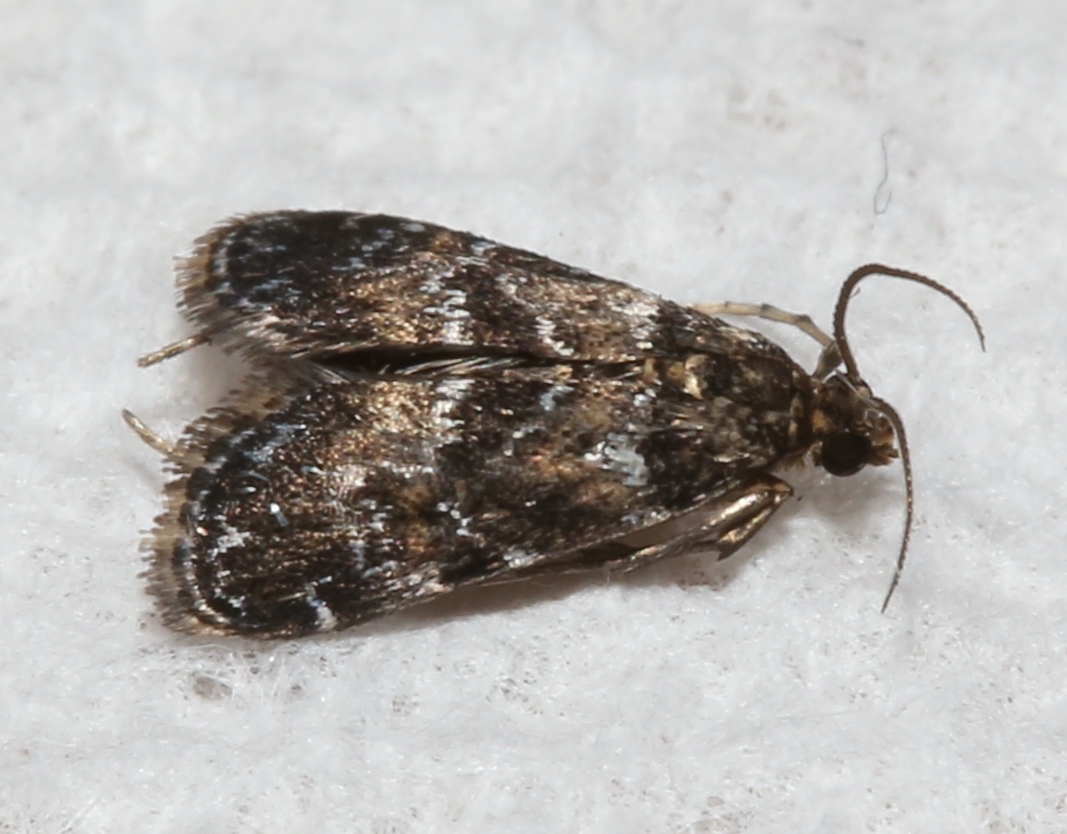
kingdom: Animalia
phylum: Arthropoda
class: Insecta
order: Lepidoptera
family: Crambidae
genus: Elophila
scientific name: Elophila obliteralis
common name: Waterlily leafcutter moth
